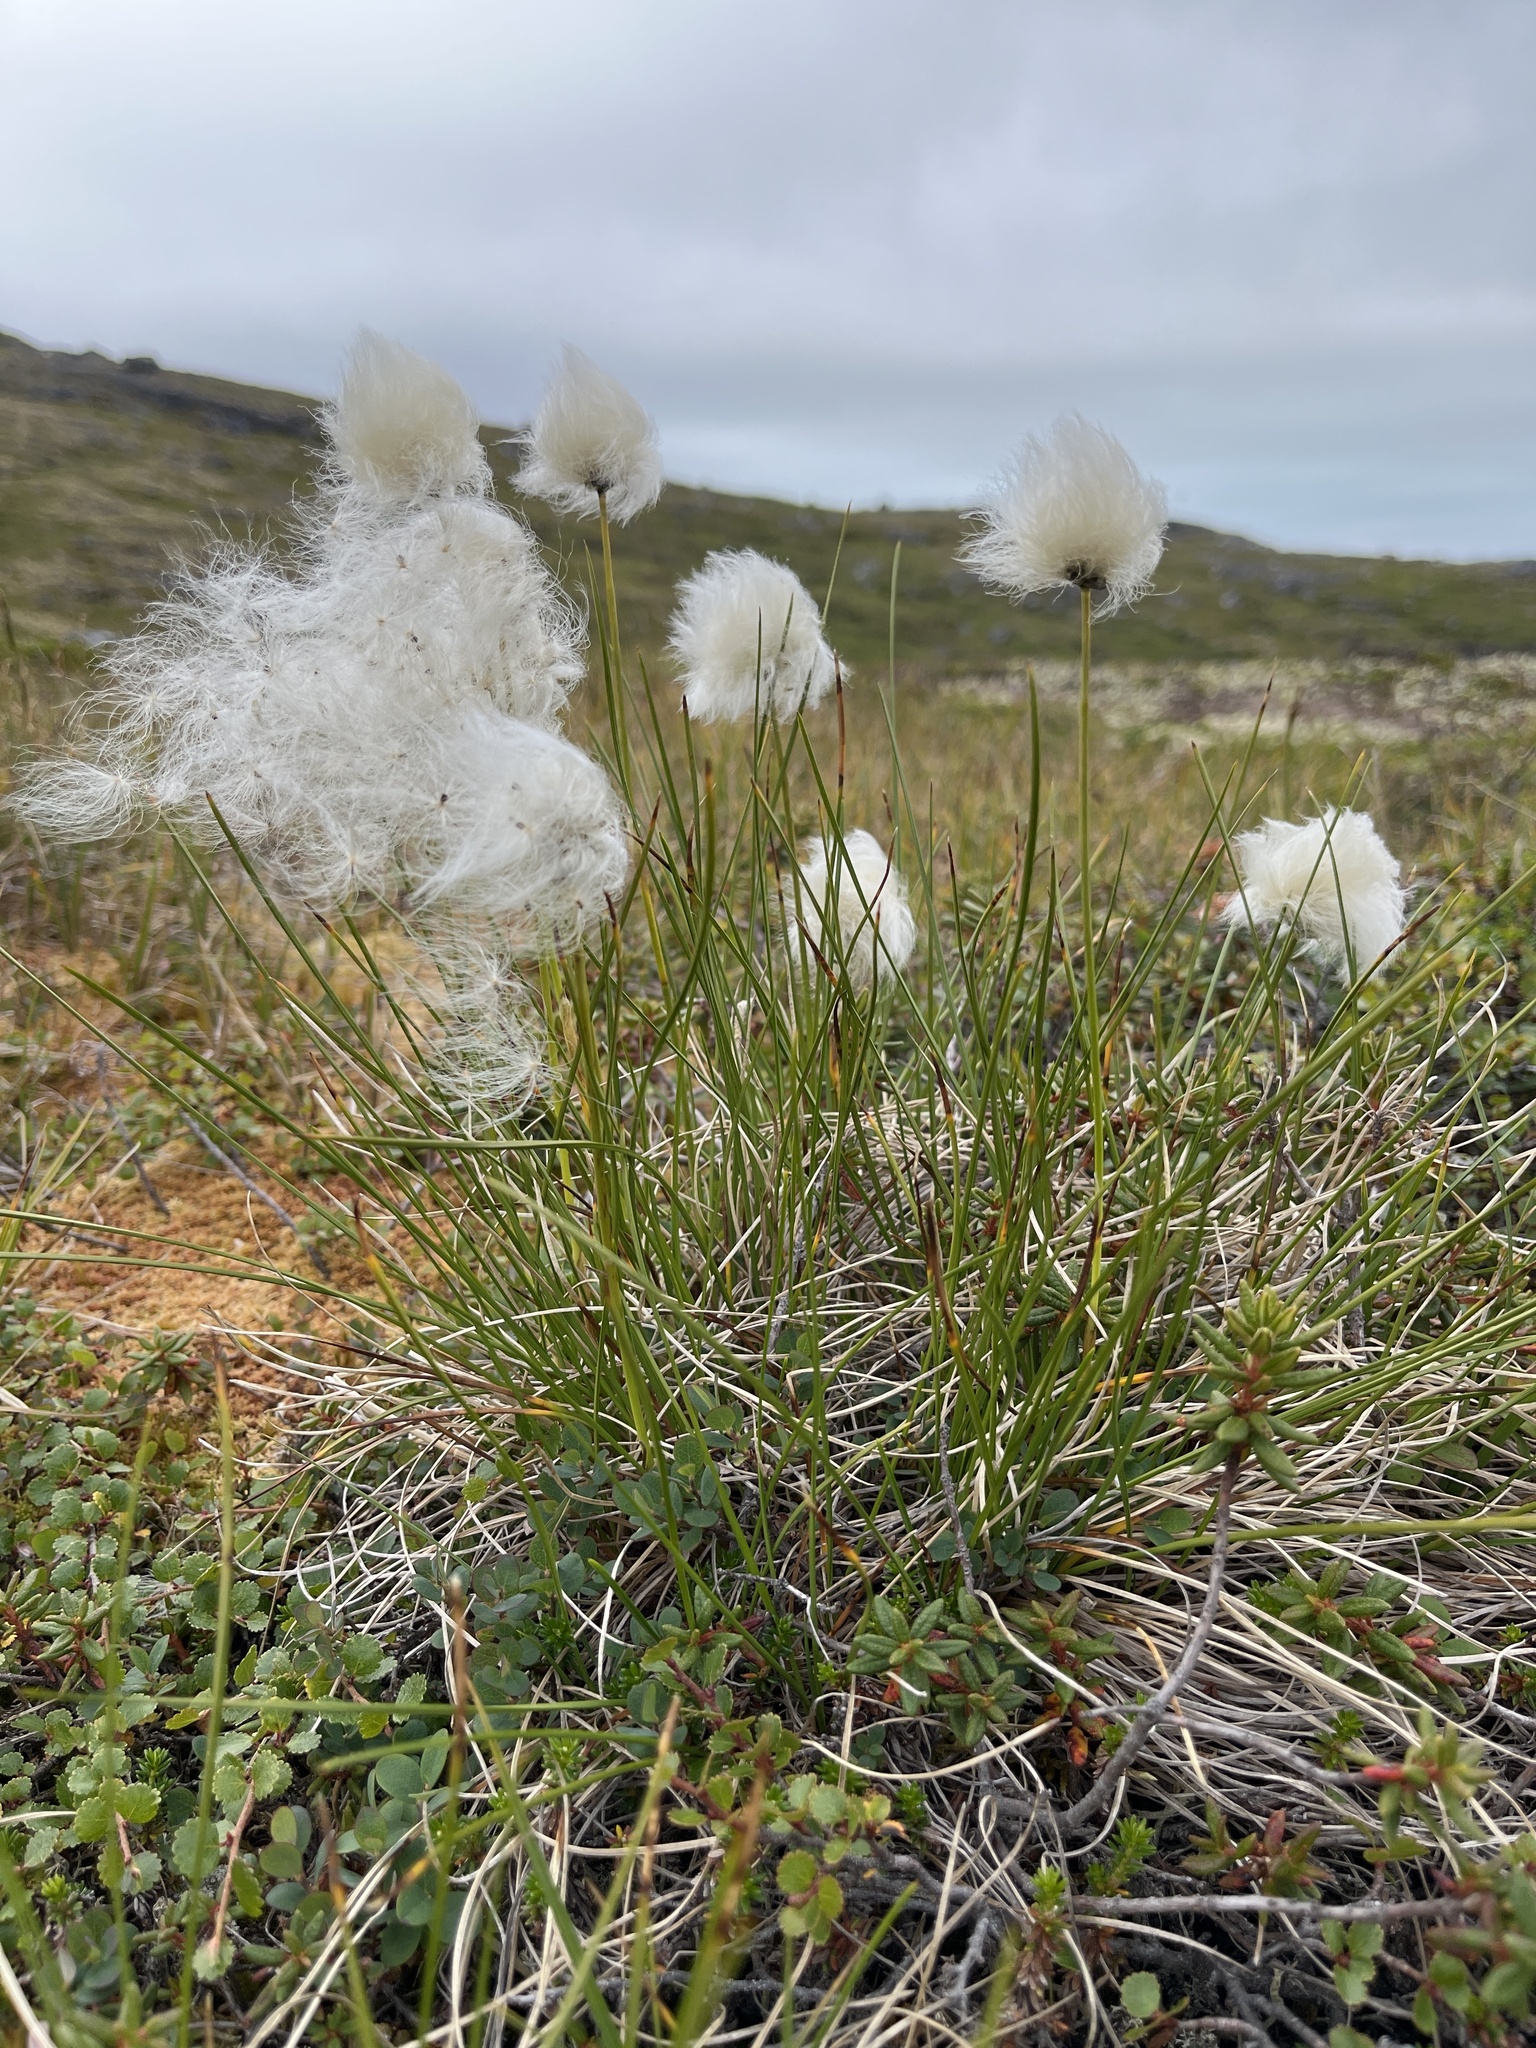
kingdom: Plantae
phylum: Tracheophyta
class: Liliopsida
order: Poales
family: Cyperaceae
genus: Eriophorum
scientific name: Eriophorum vaginatum
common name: Hare's-tail cottongrass
